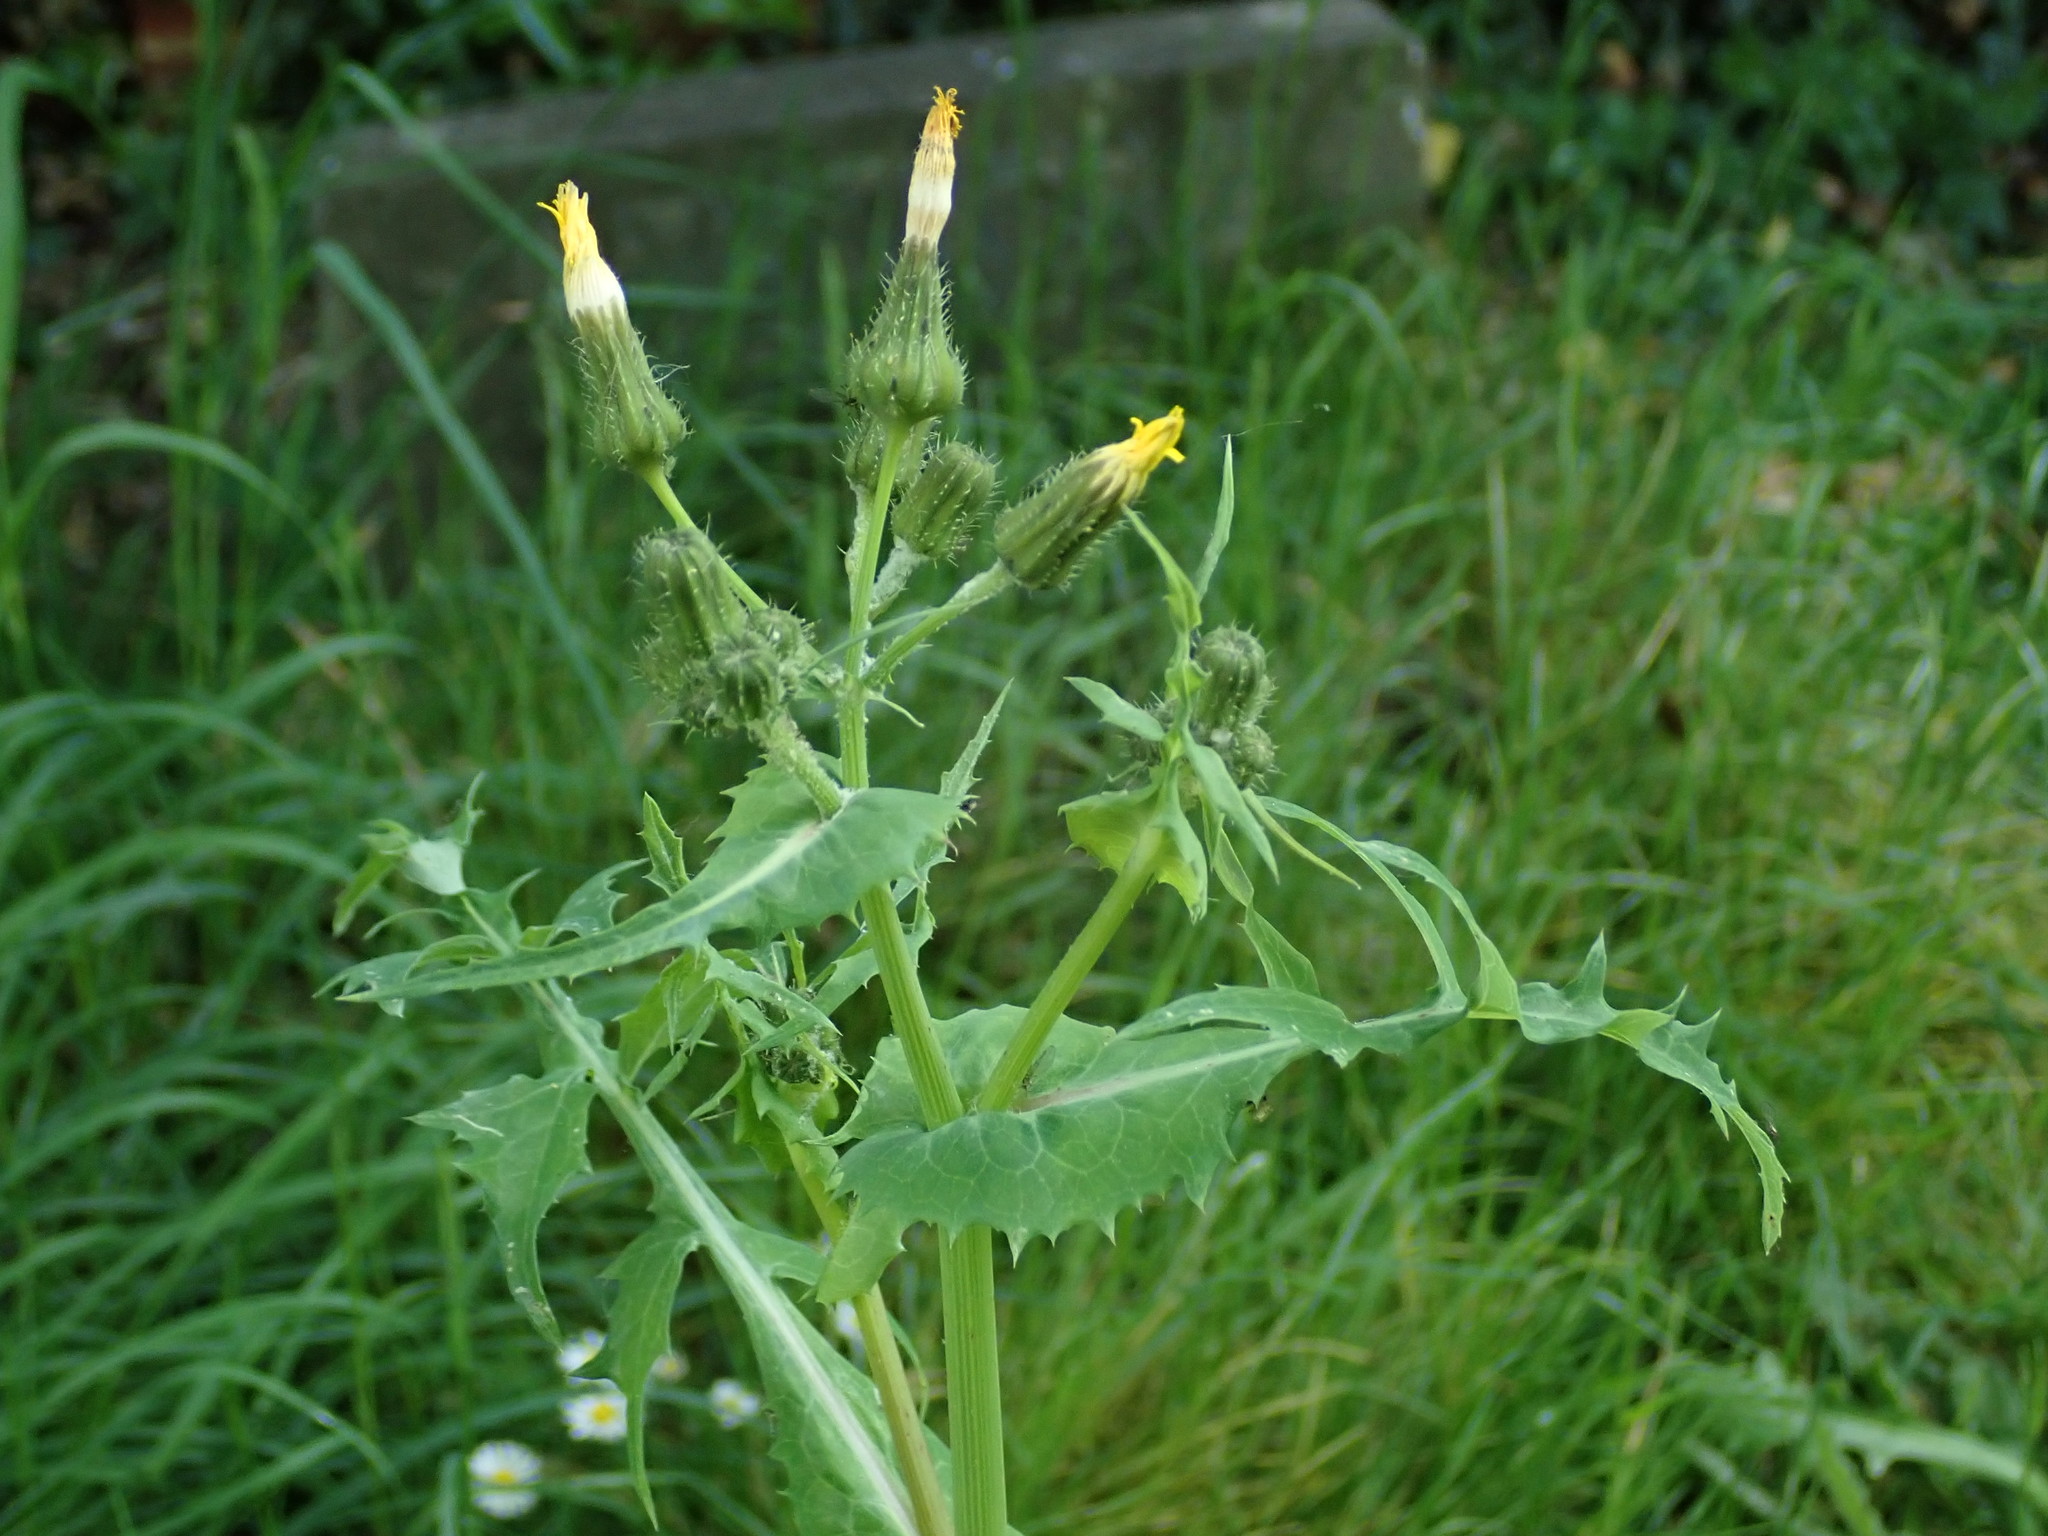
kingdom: Plantae
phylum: Tracheophyta
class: Magnoliopsida
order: Asterales
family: Asteraceae
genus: Sonchus
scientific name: Sonchus oleraceus
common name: Common sowthistle
